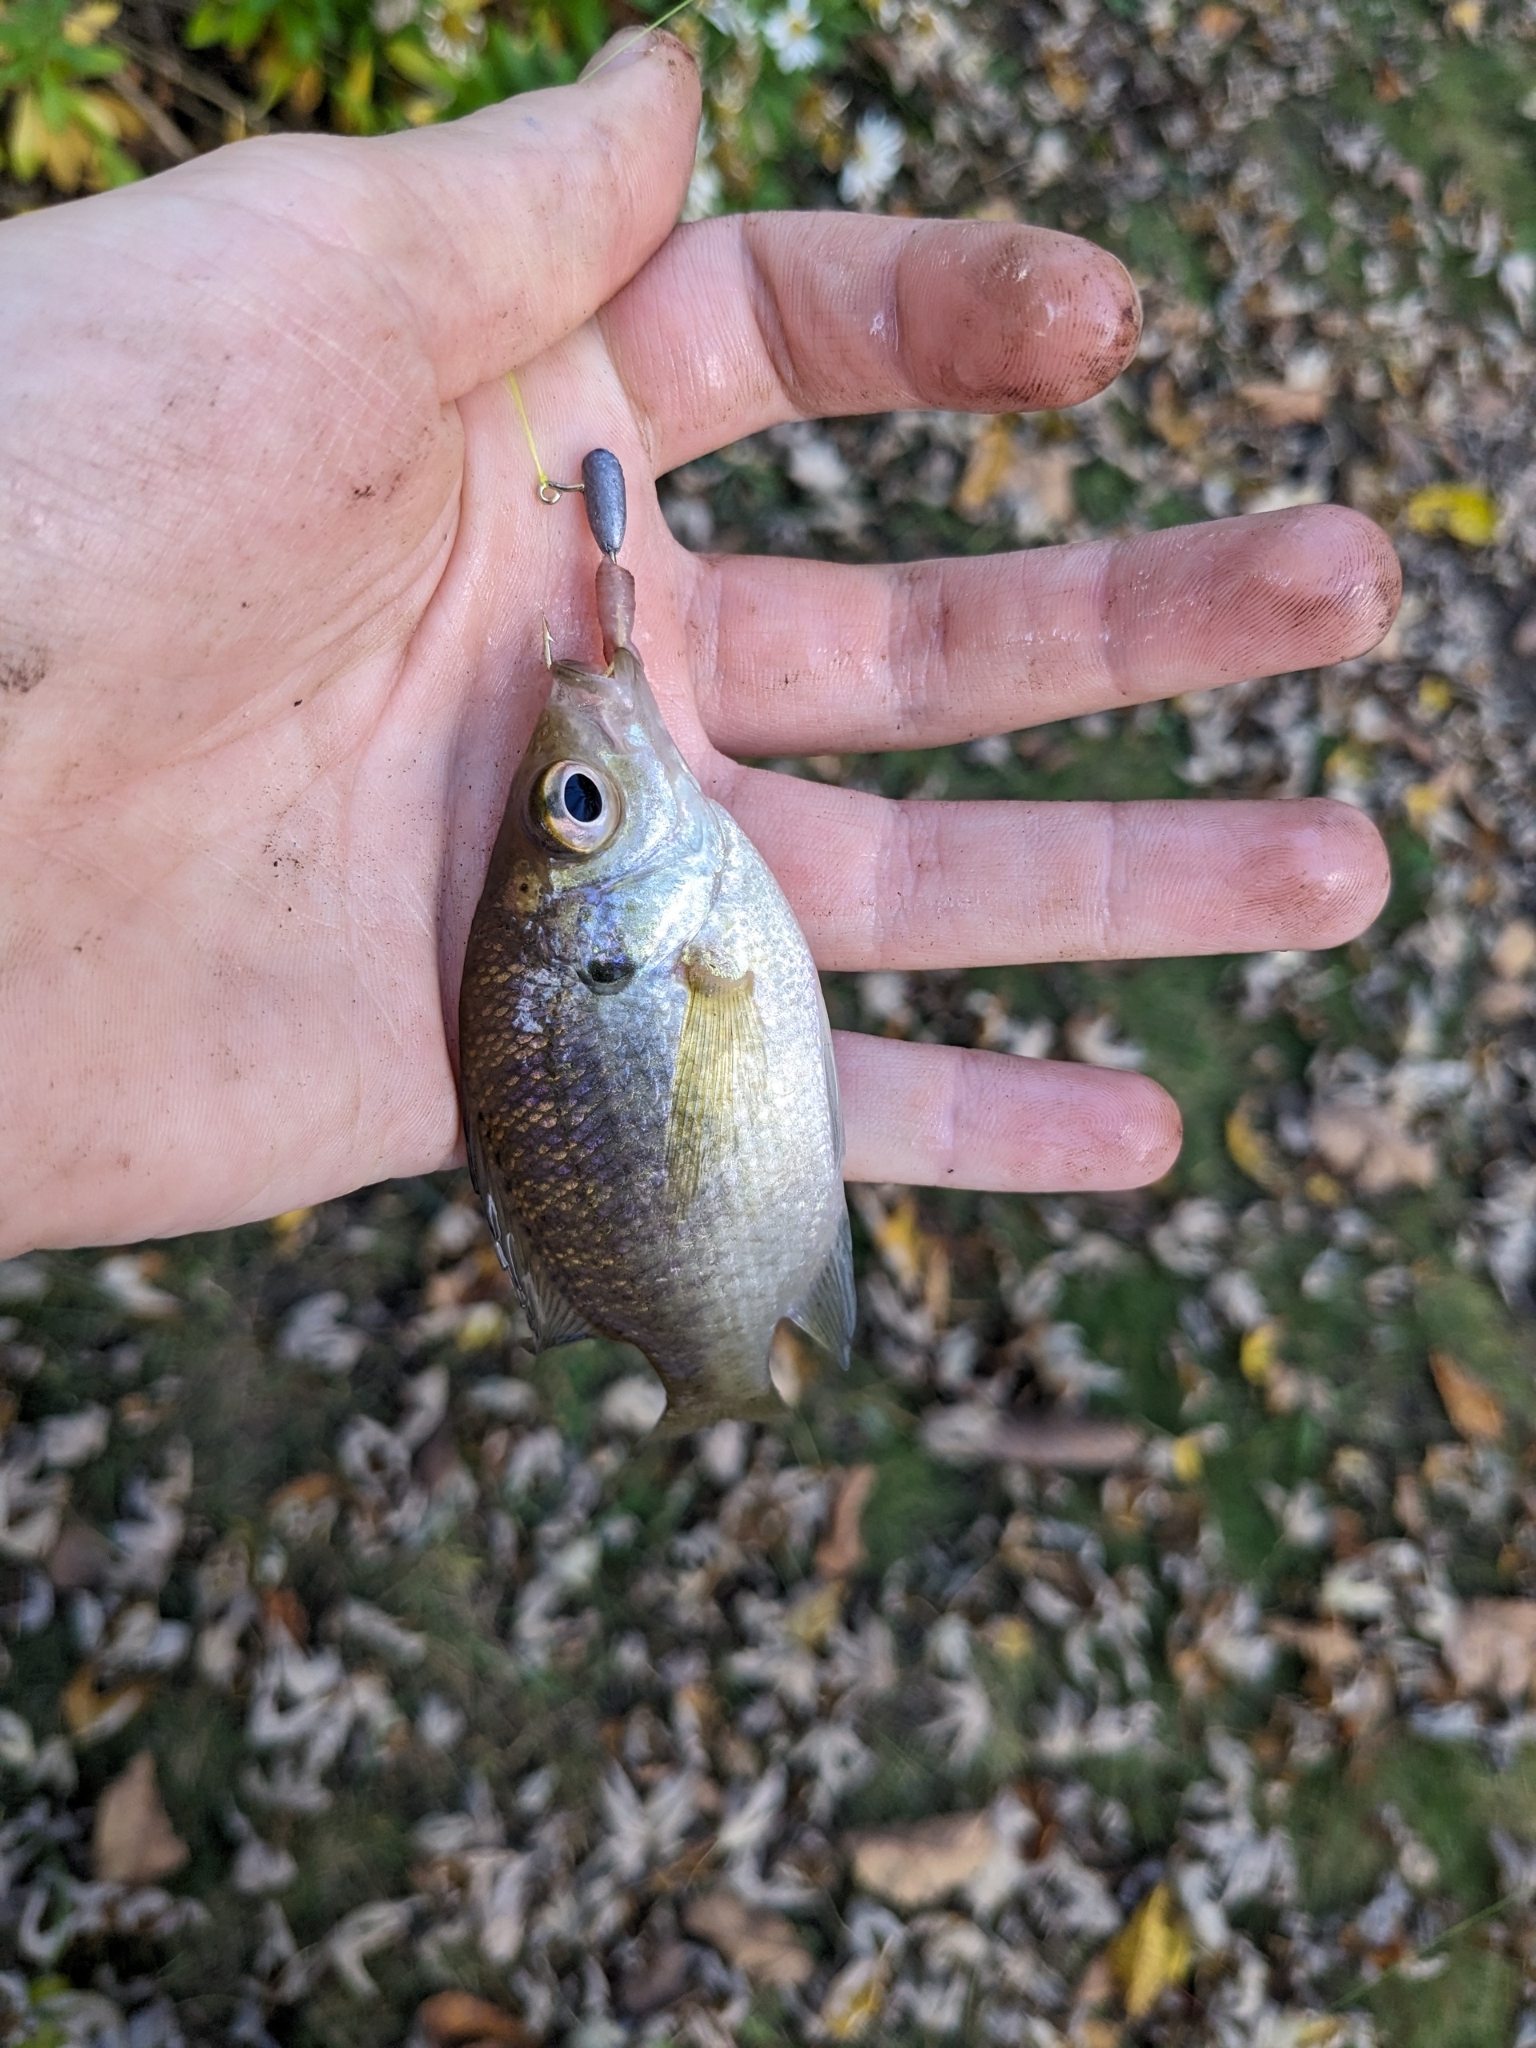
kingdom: Animalia
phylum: Chordata
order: Perciformes
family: Centrarchidae
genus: Lepomis
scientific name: Lepomis macrochirus
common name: Bluegill
